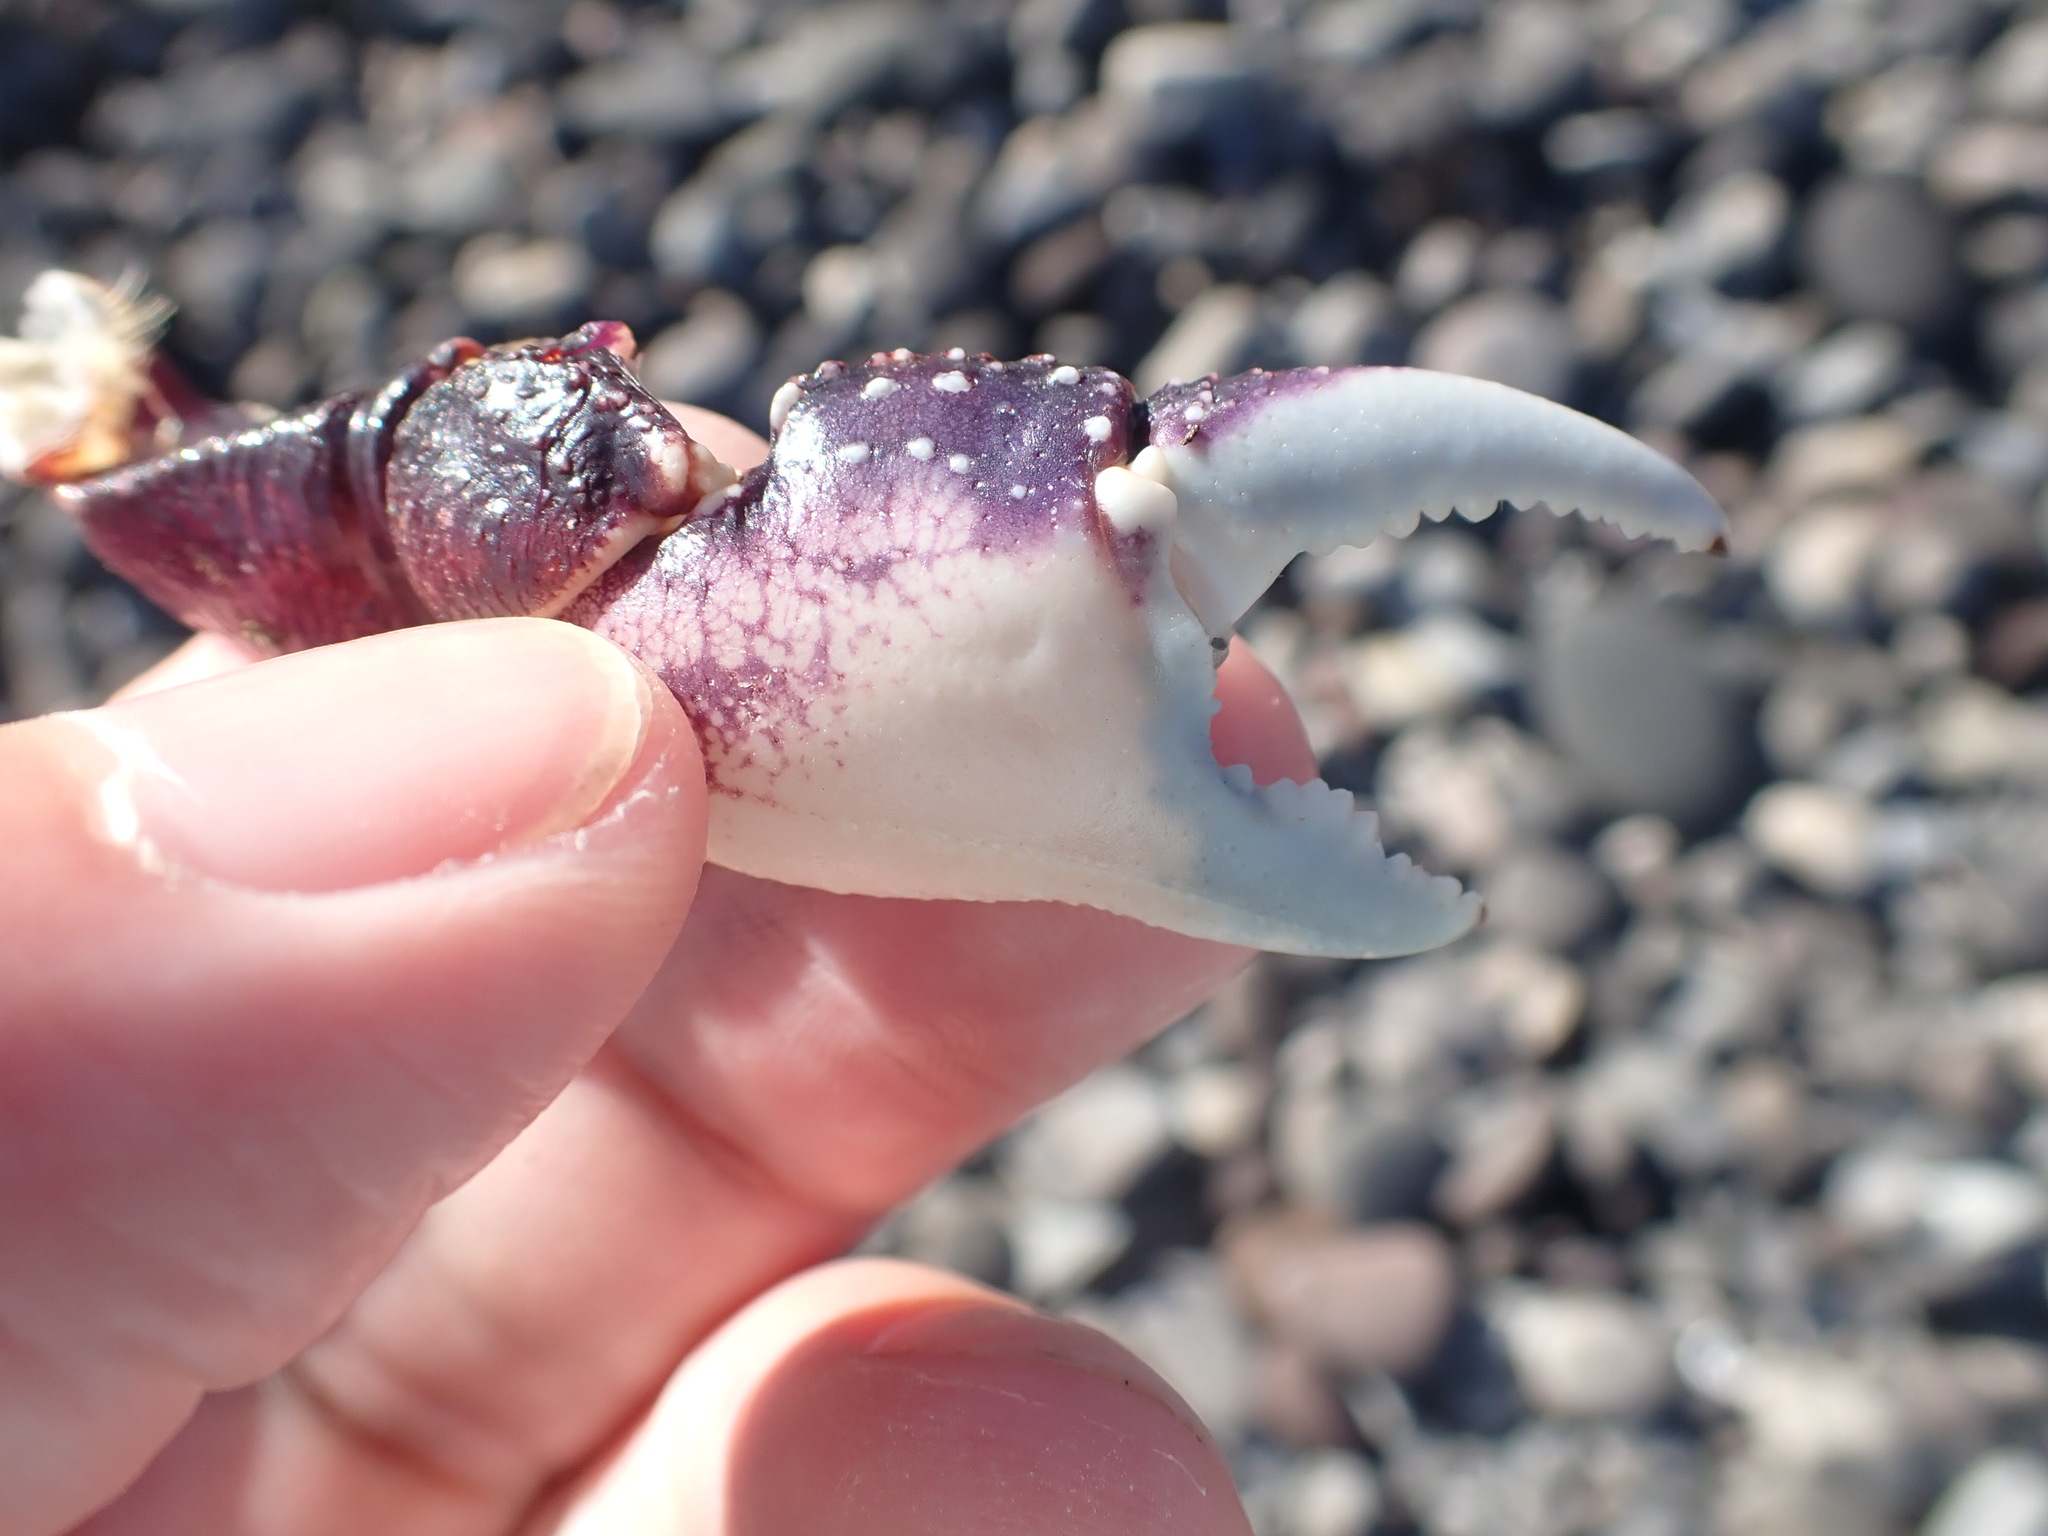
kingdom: Animalia
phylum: Arthropoda
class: Malacostraca
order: Decapoda
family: Grapsidae
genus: Leptograpsus
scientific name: Leptograpsus variegatus
